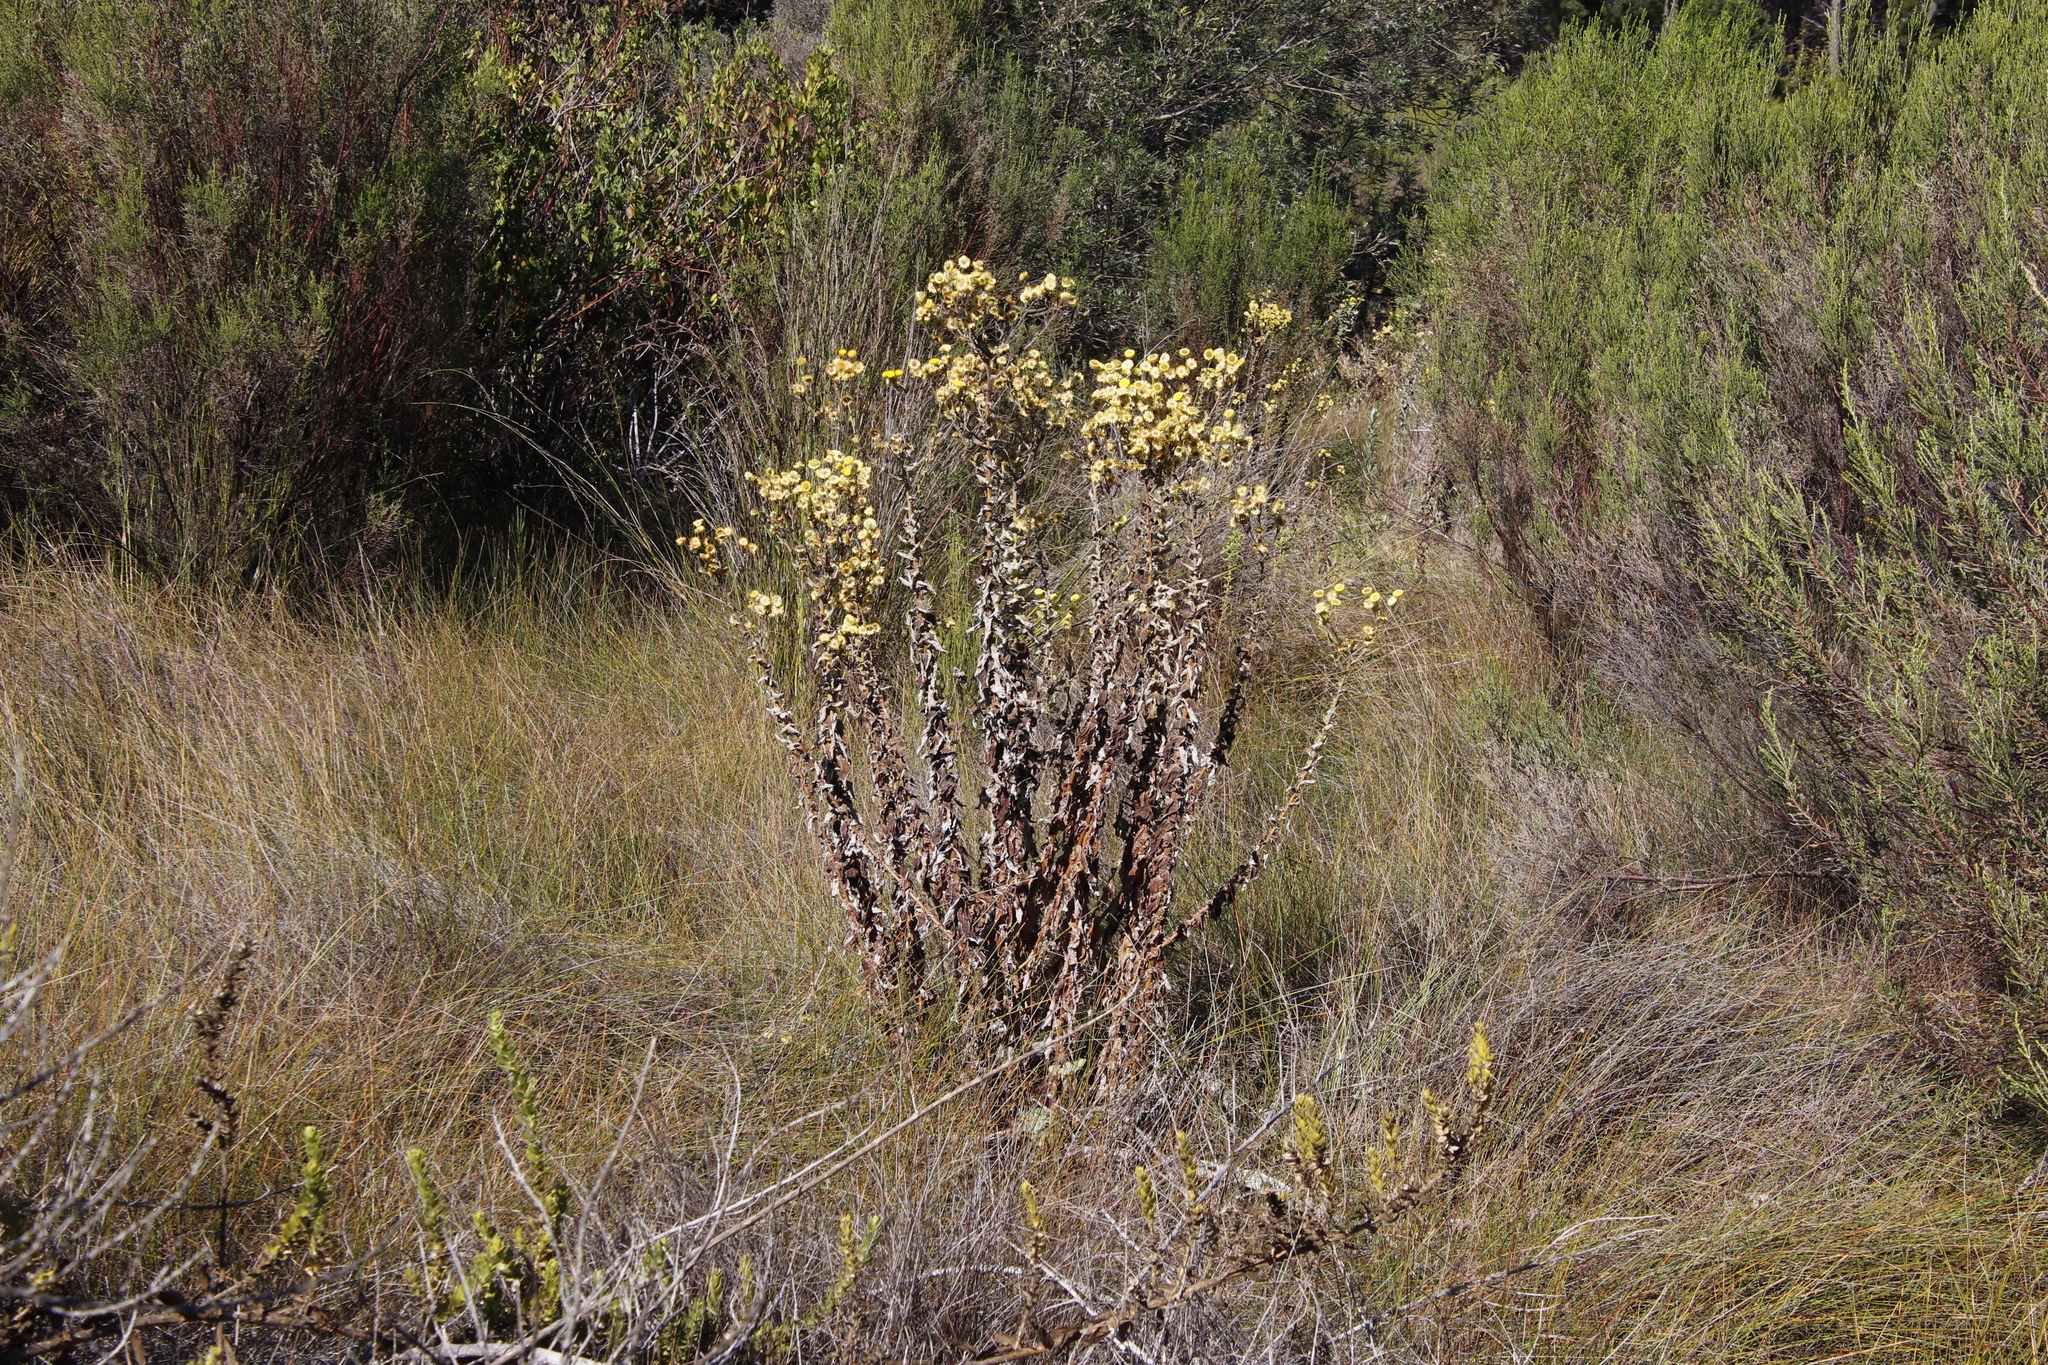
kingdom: Plantae
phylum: Tracheophyta
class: Magnoliopsida
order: Asterales
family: Asteraceae
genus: Helichrysum
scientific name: Helichrysum foetidum
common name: Stinking everlasting
